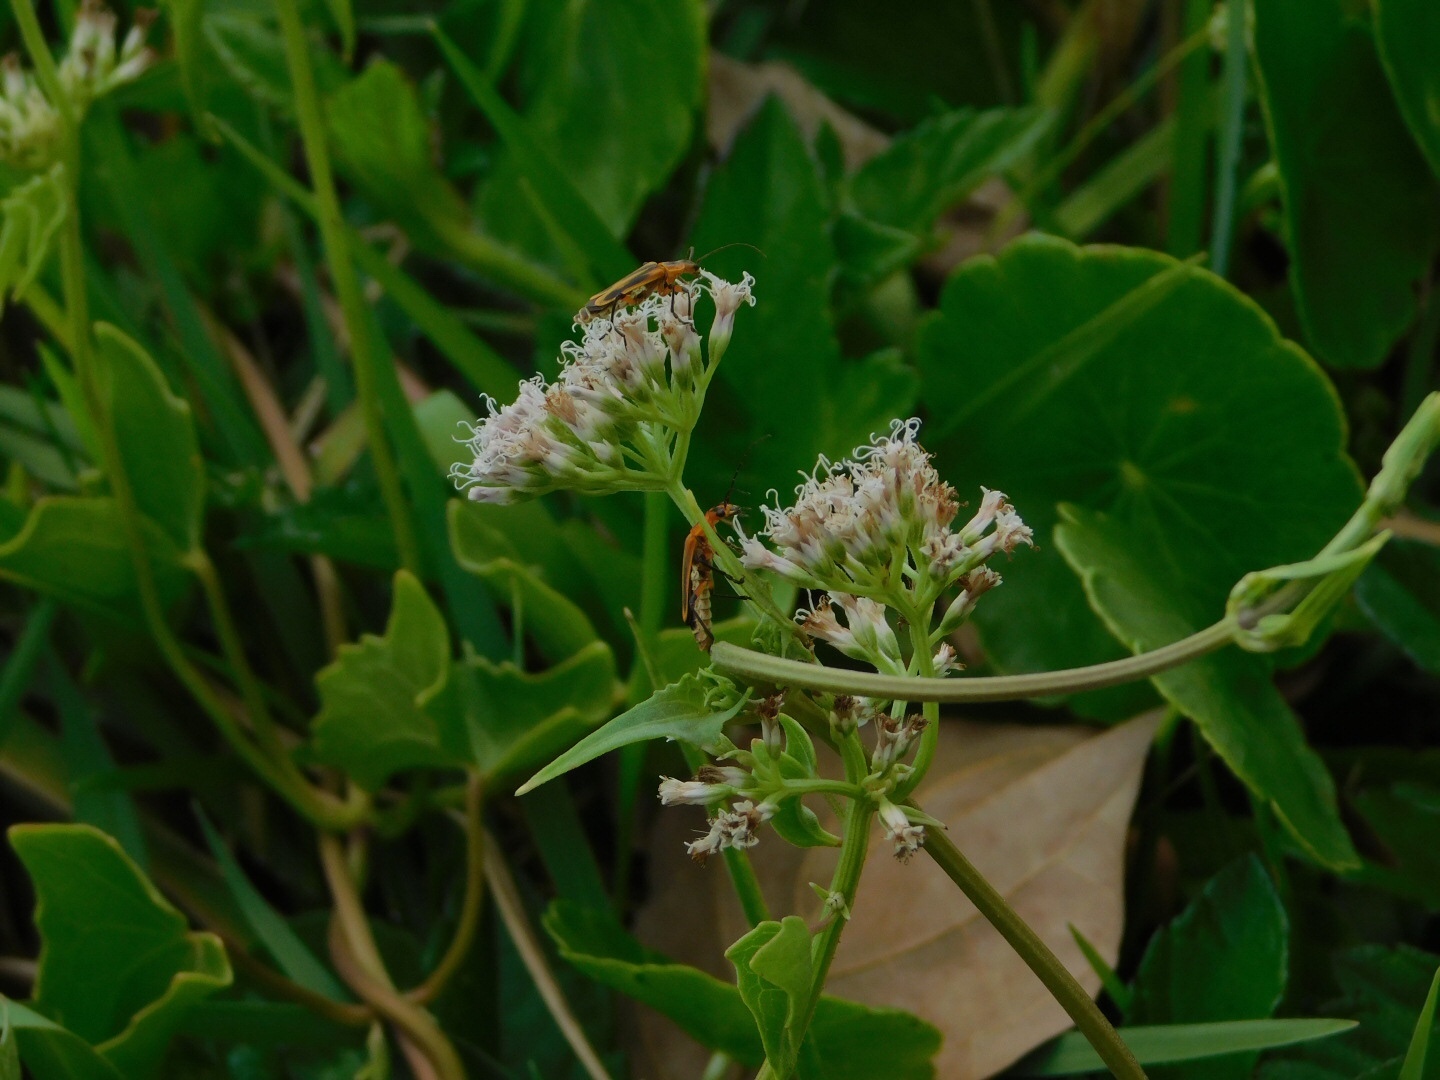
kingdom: Plantae
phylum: Tracheophyta
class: Magnoliopsida
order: Asterales
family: Asteraceae
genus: Mikania
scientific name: Mikania scandens
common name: Climbing hempvine
